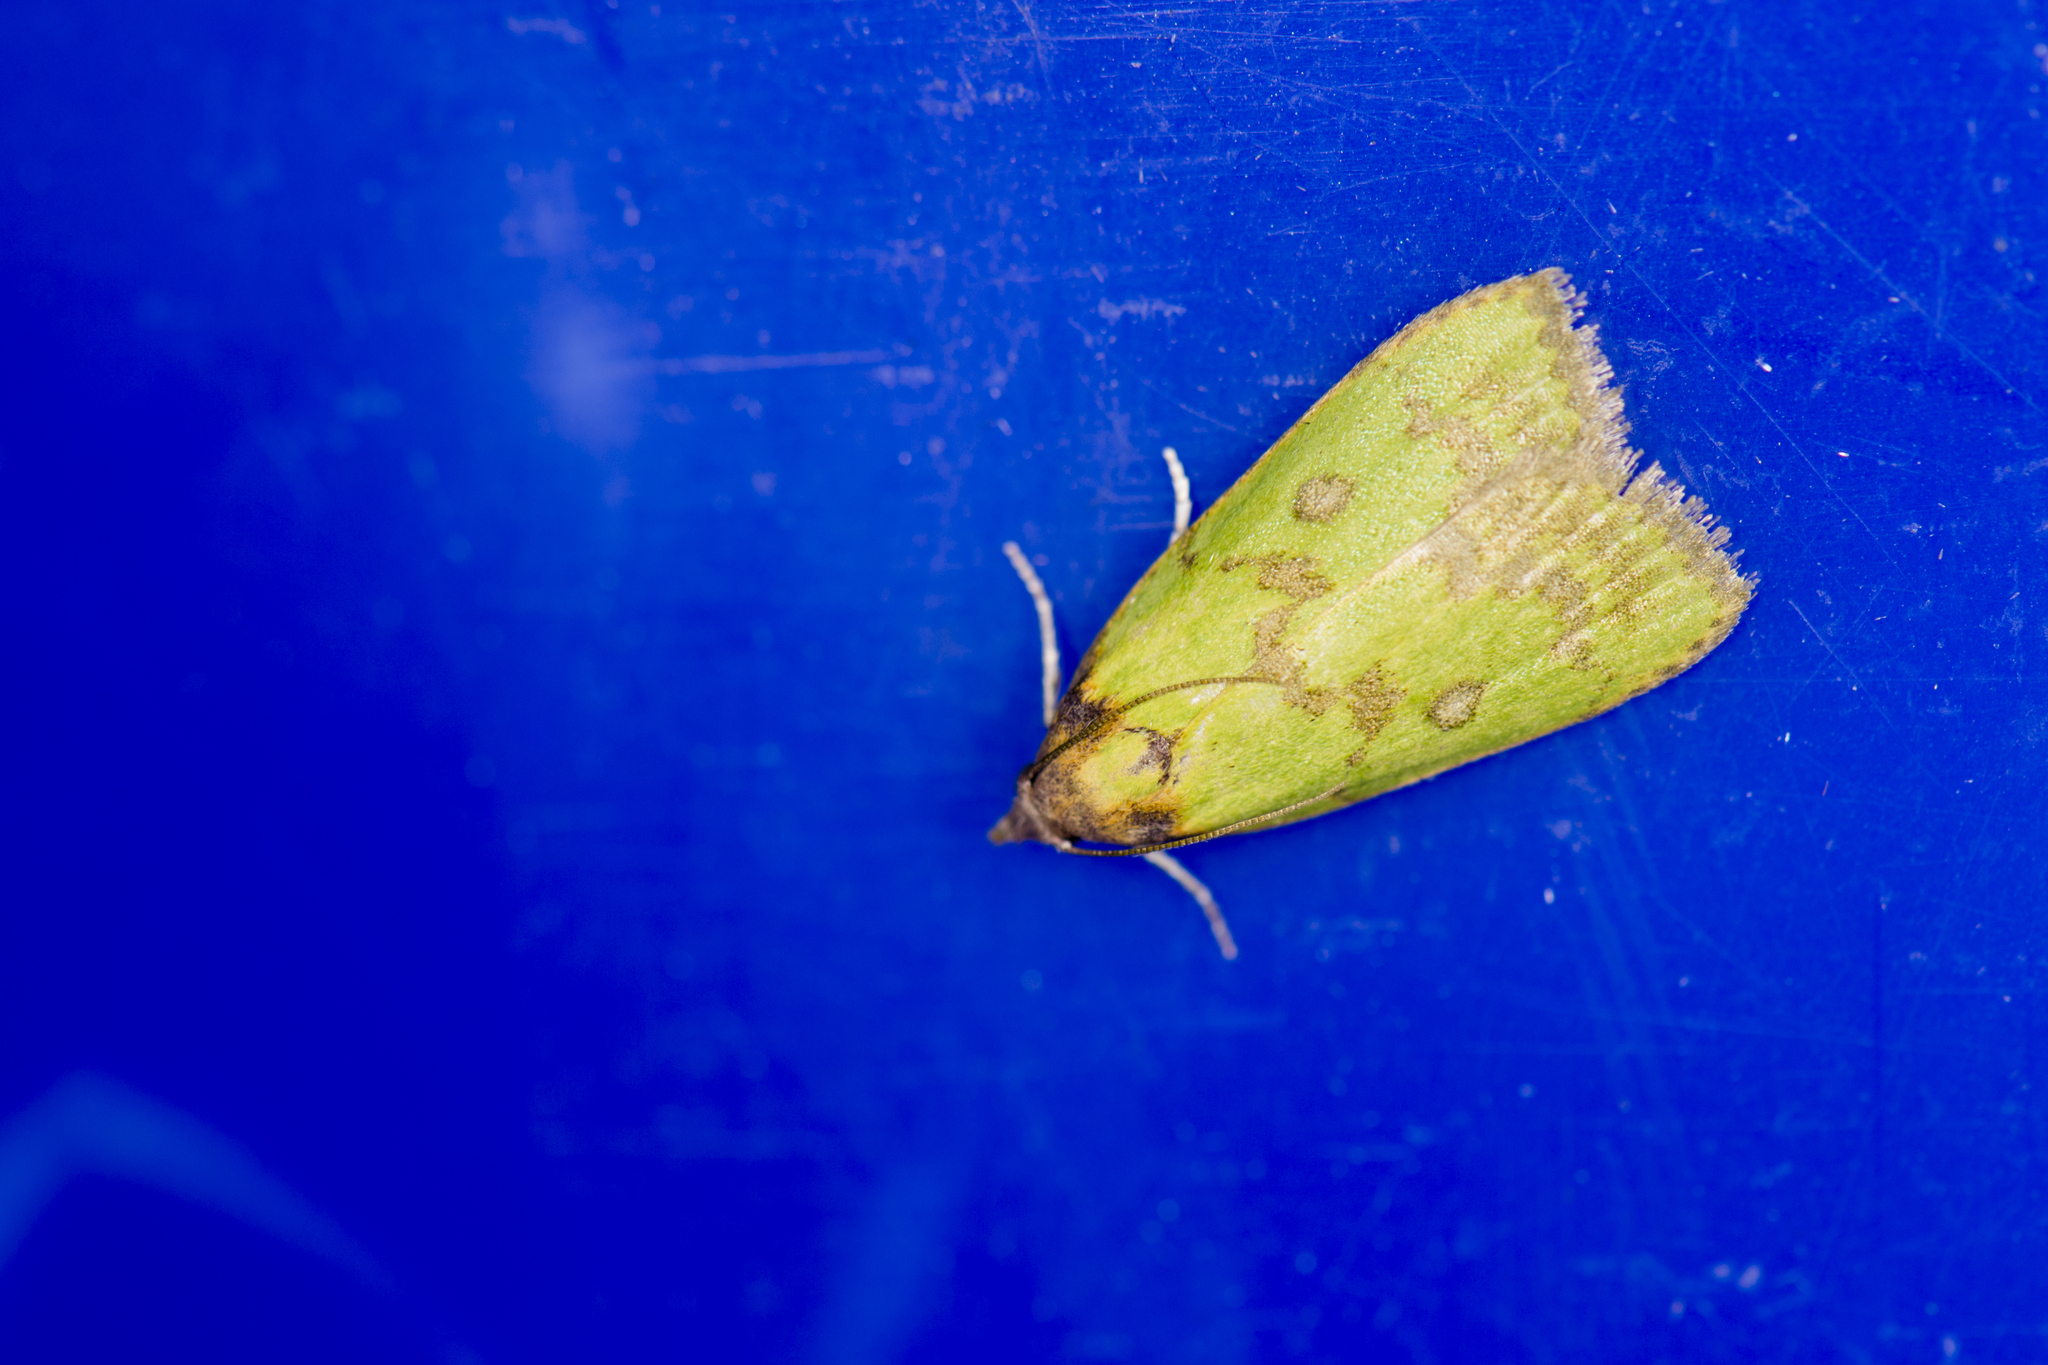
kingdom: Animalia
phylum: Arthropoda
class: Insecta
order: Lepidoptera
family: Pyralidae
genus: Doloessa
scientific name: Doloessa viridis
